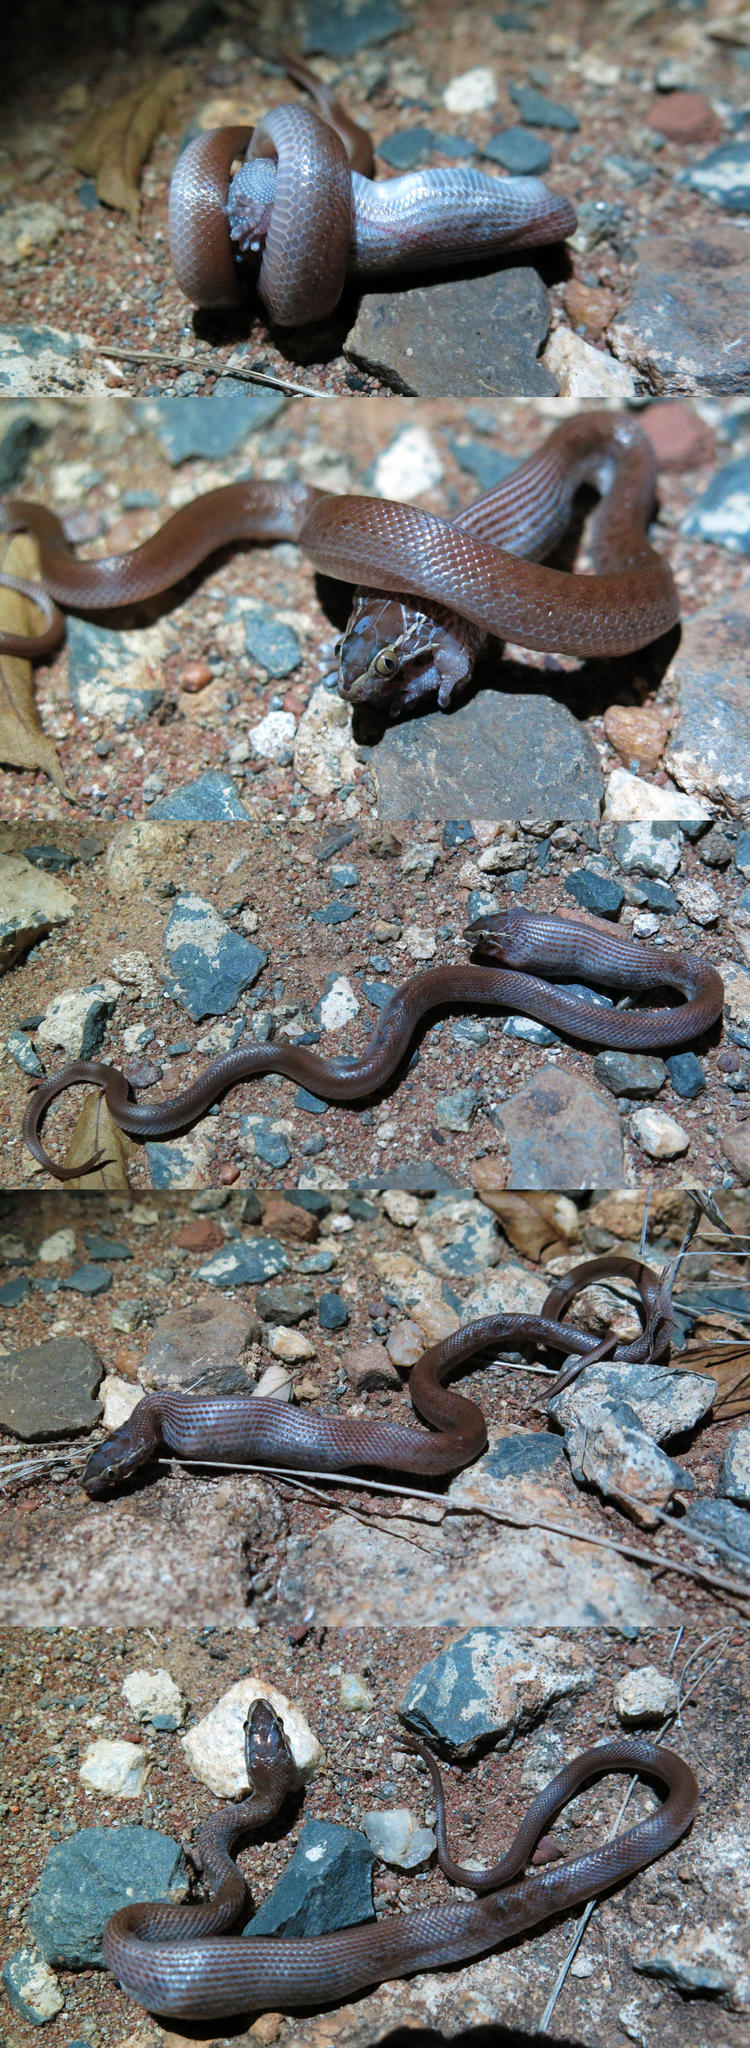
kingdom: Animalia
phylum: Chordata
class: Squamata
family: Lamprophiidae
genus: Boaedon
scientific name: Boaedon capensis
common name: Brown house snake
